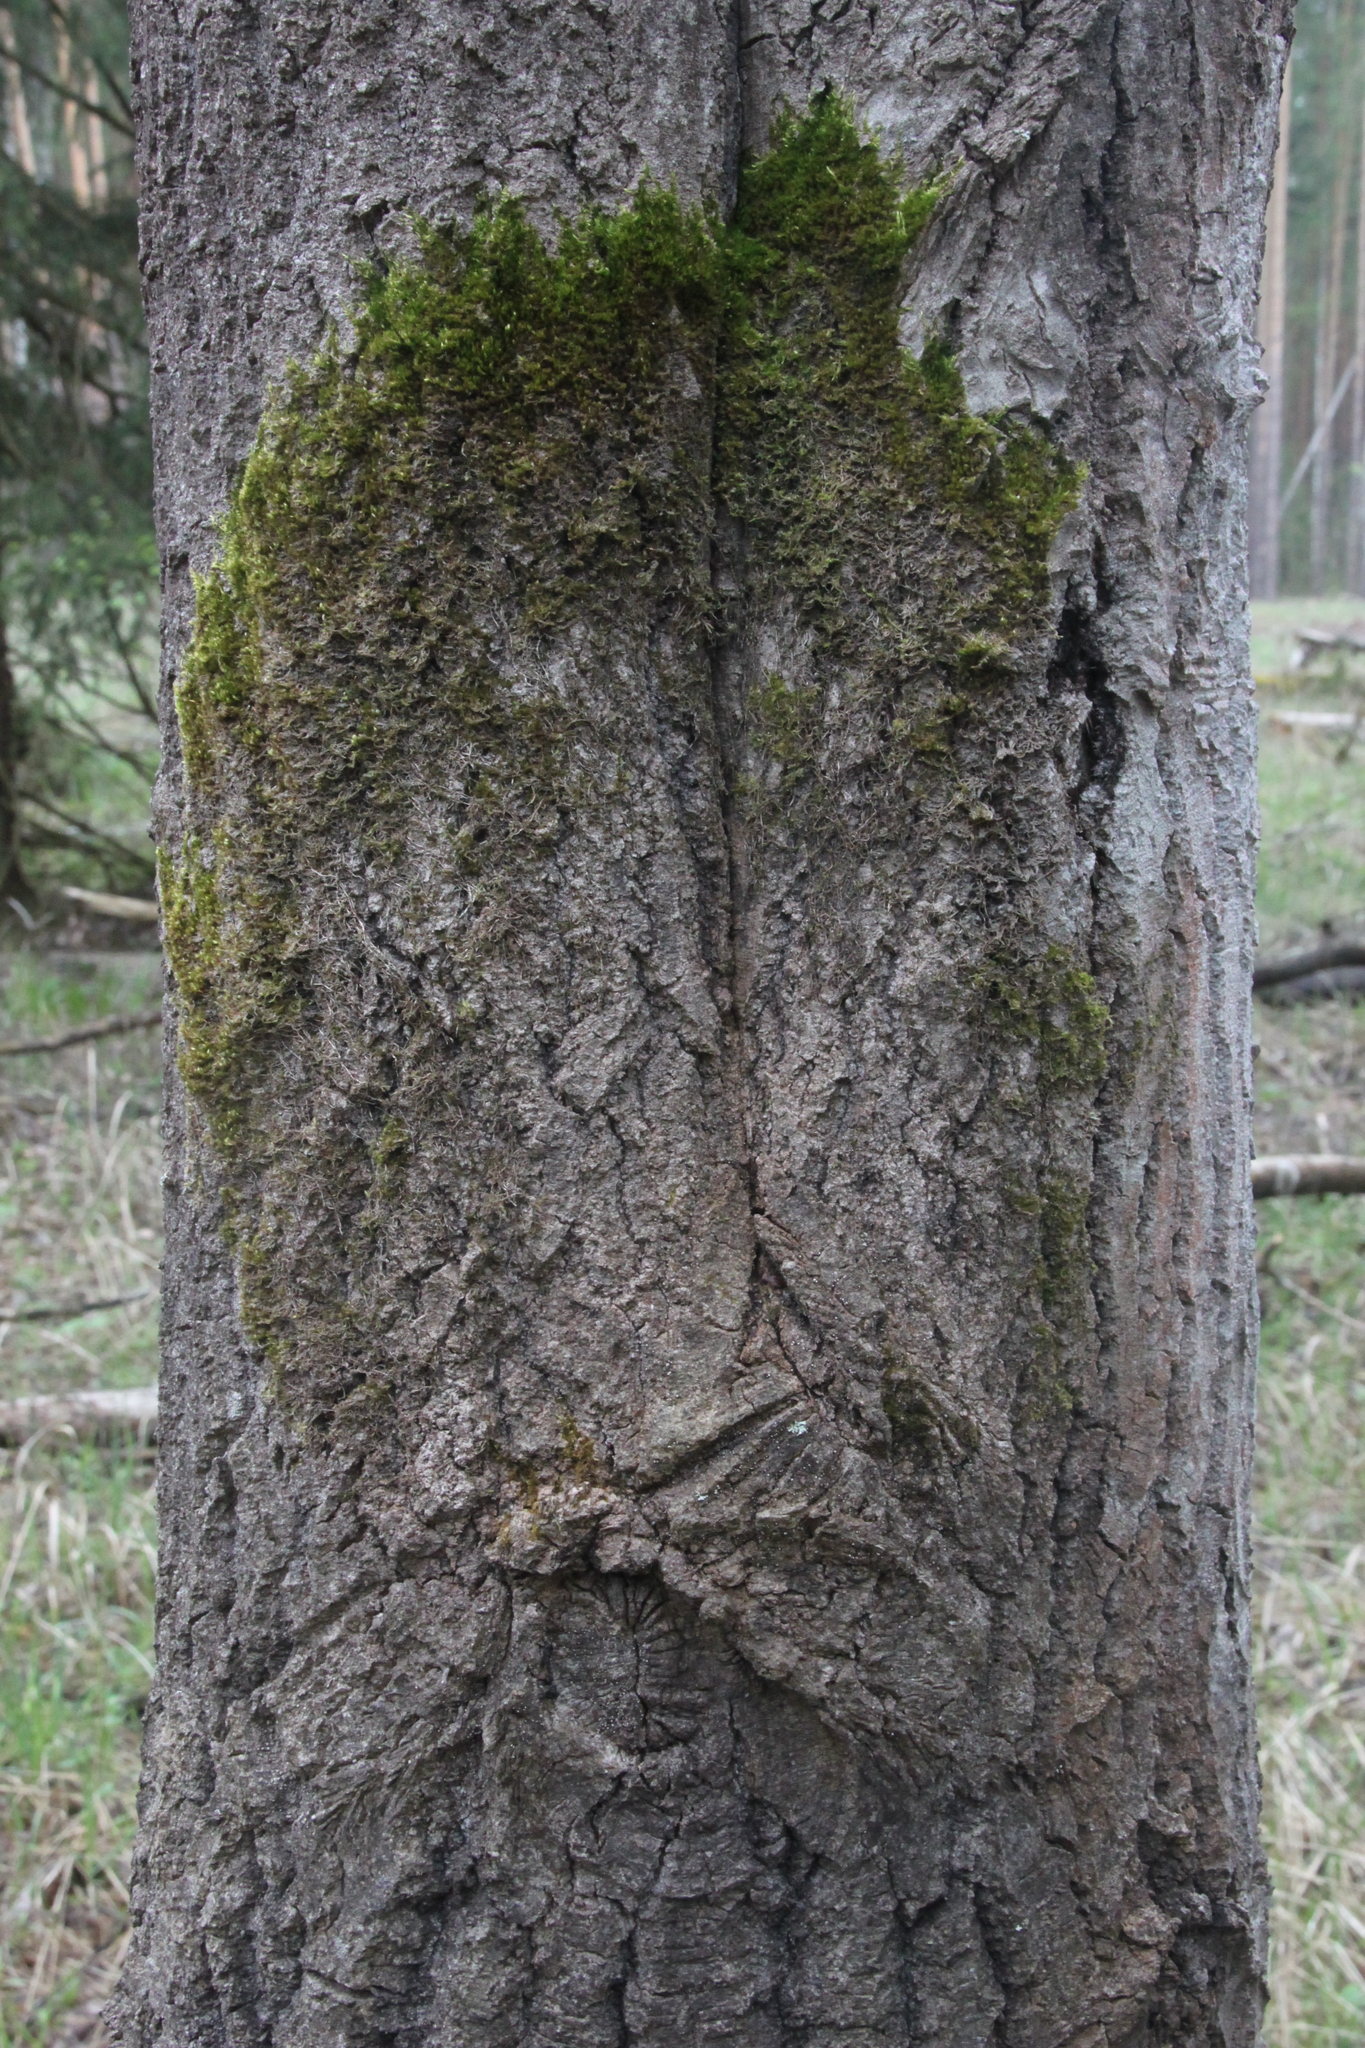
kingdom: Plantae
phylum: Tracheophyta
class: Magnoliopsida
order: Malpighiales
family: Salicaceae
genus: Populus
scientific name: Populus tremula
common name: European aspen
